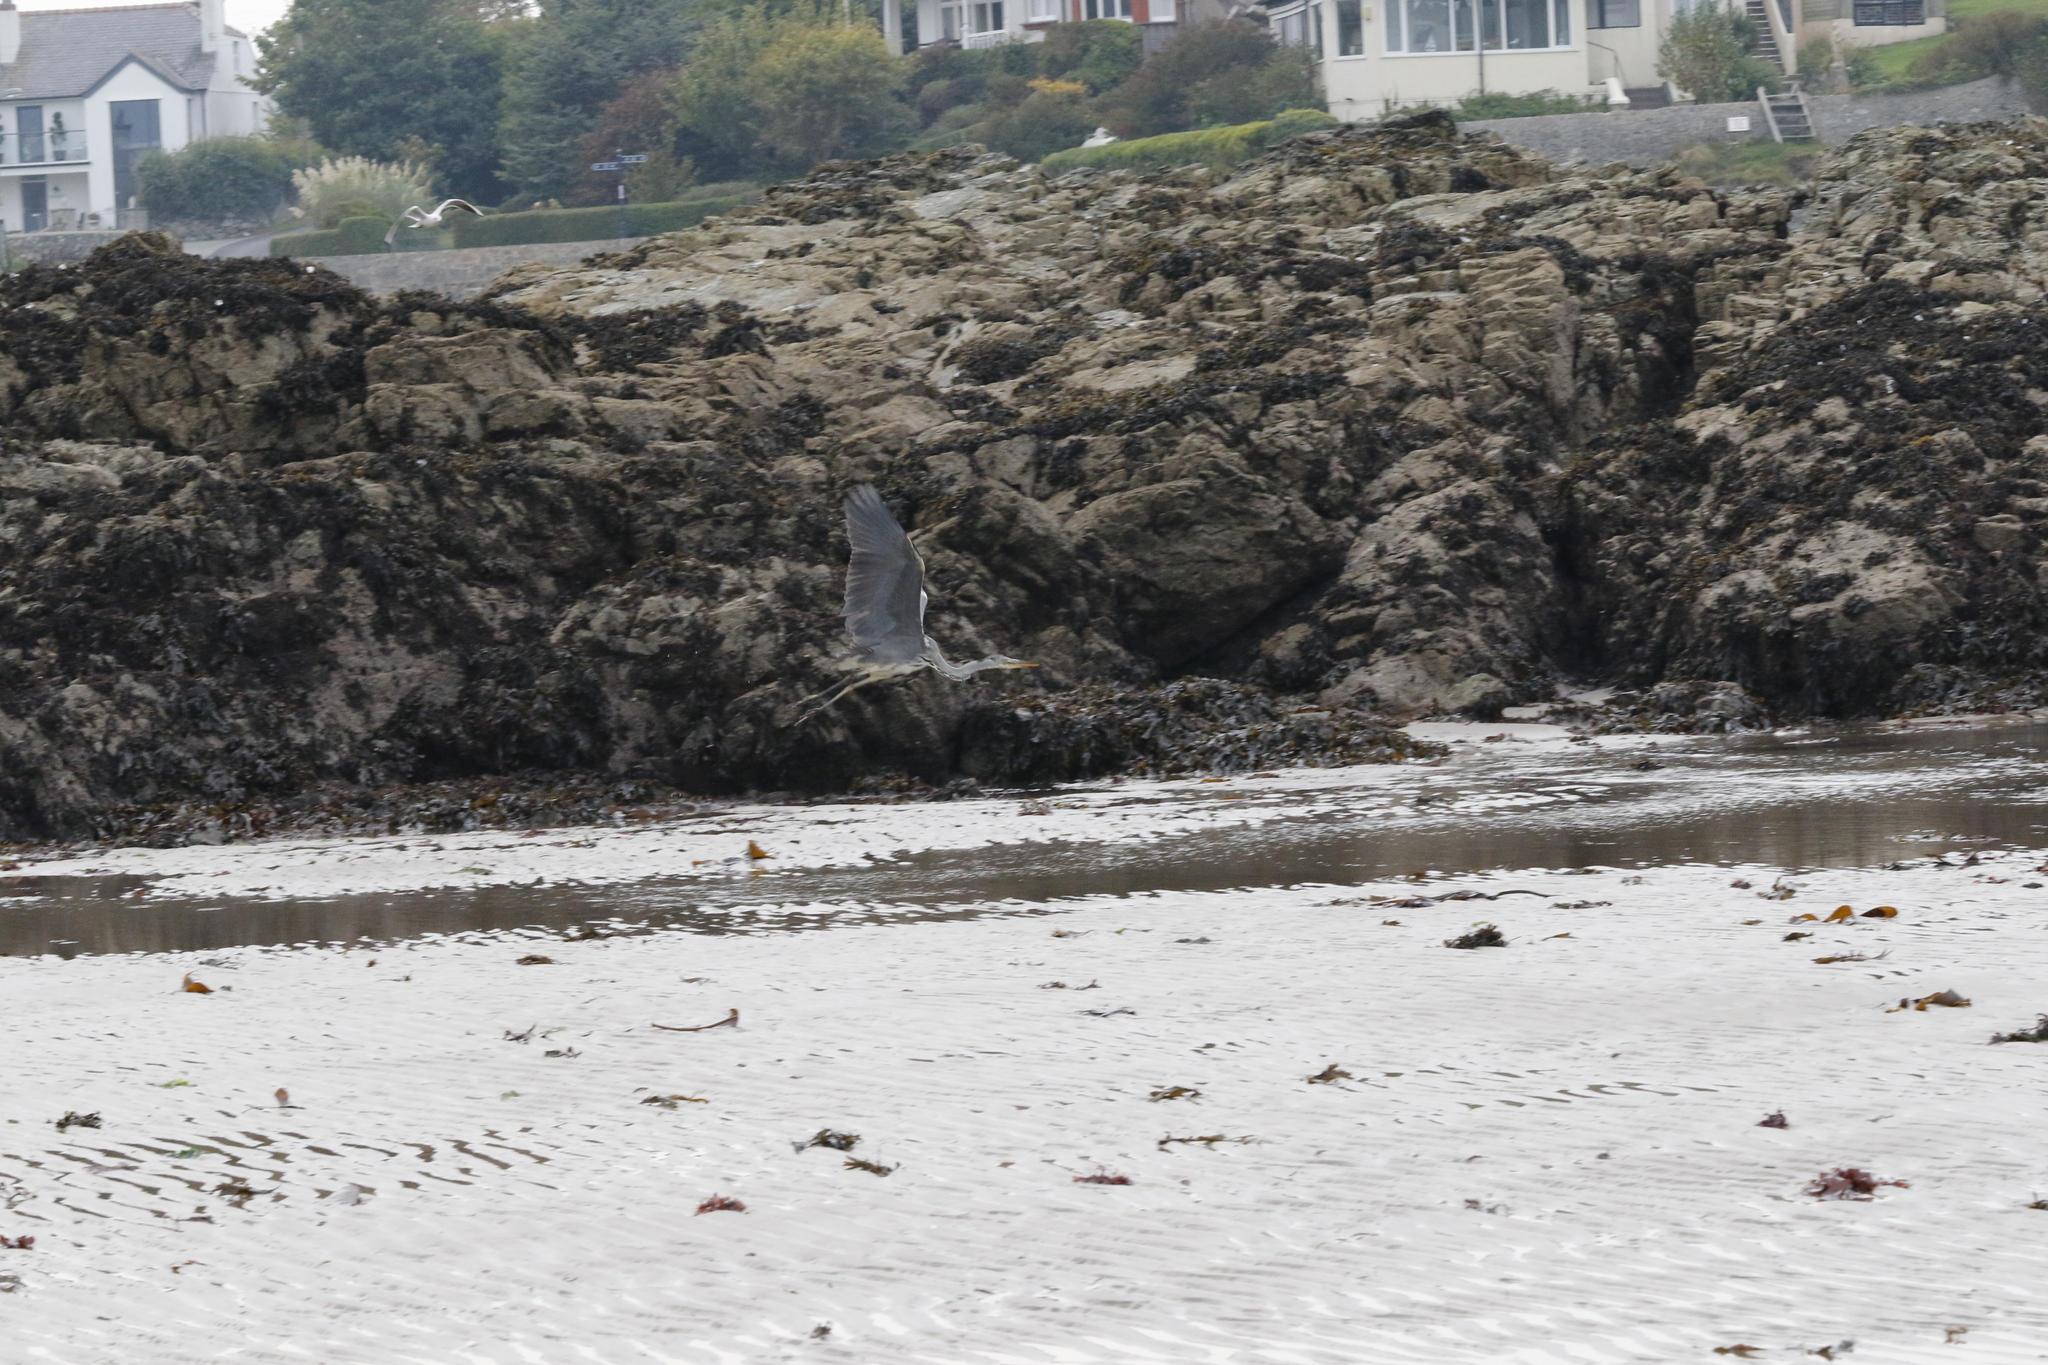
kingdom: Animalia
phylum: Chordata
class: Aves
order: Pelecaniformes
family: Ardeidae
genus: Ardea
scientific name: Ardea cinerea
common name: Grey heron
